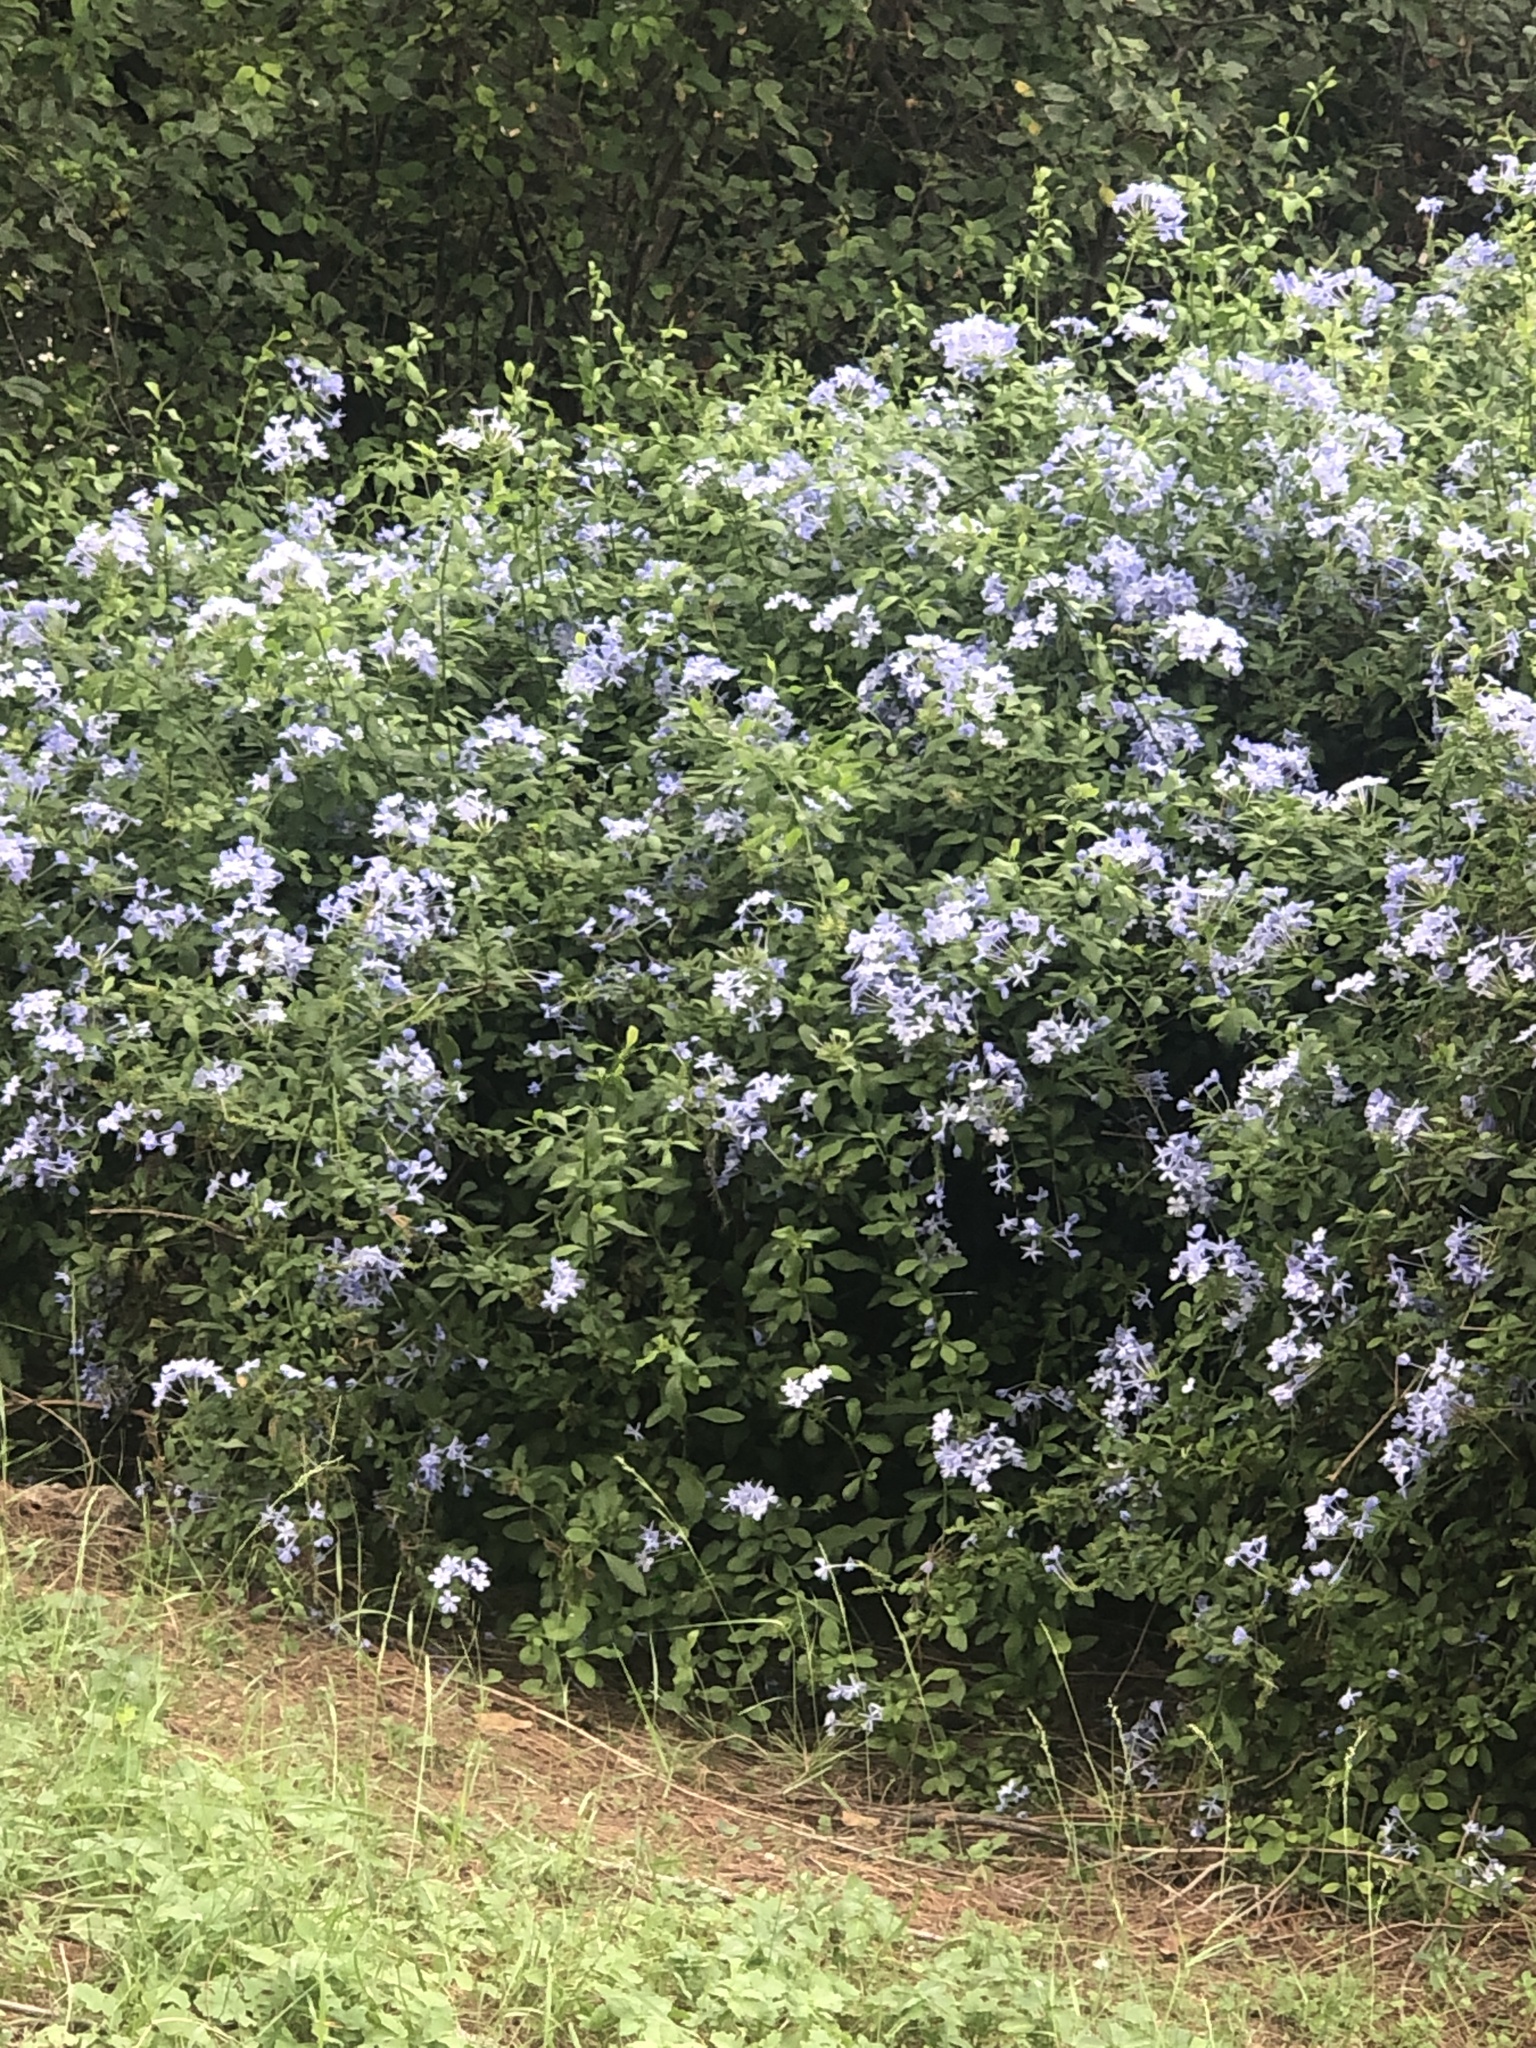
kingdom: Plantae
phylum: Tracheophyta
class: Magnoliopsida
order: Caryophyllales
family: Plumbaginaceae
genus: Plumbago
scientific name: Plumbago auriculata
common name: Cape leadwort
